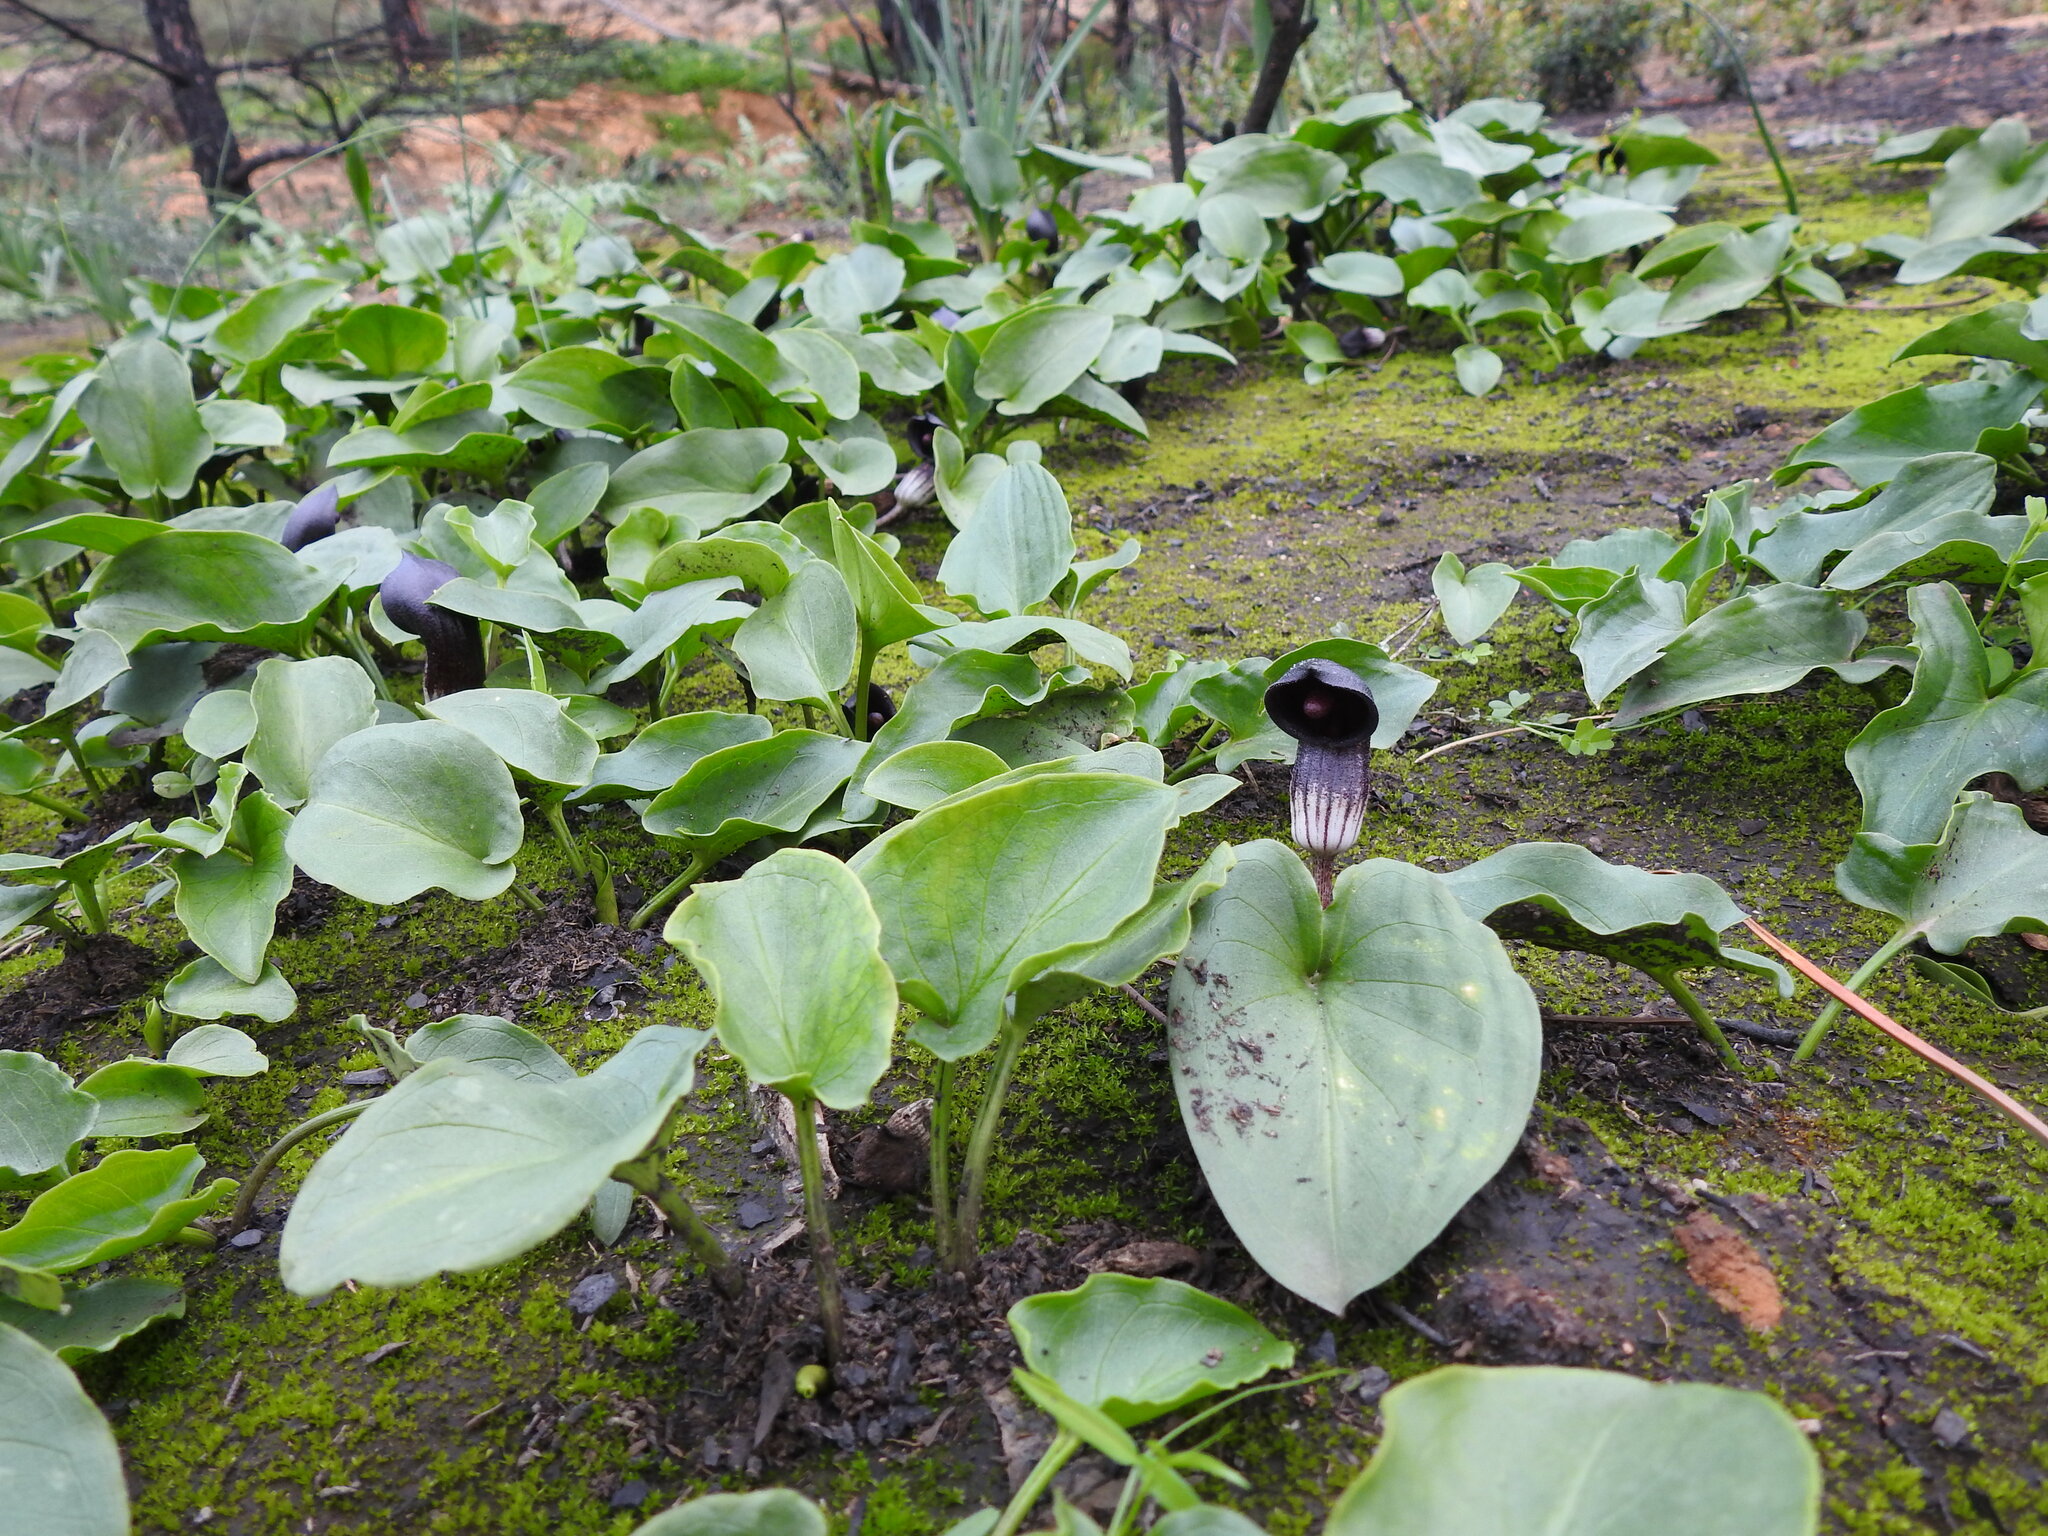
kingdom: Plantae
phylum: Tracheophyta
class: Liliopsida
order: Alismatales
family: Araceae
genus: Arisarum
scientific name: Arisarum simorrhinum
